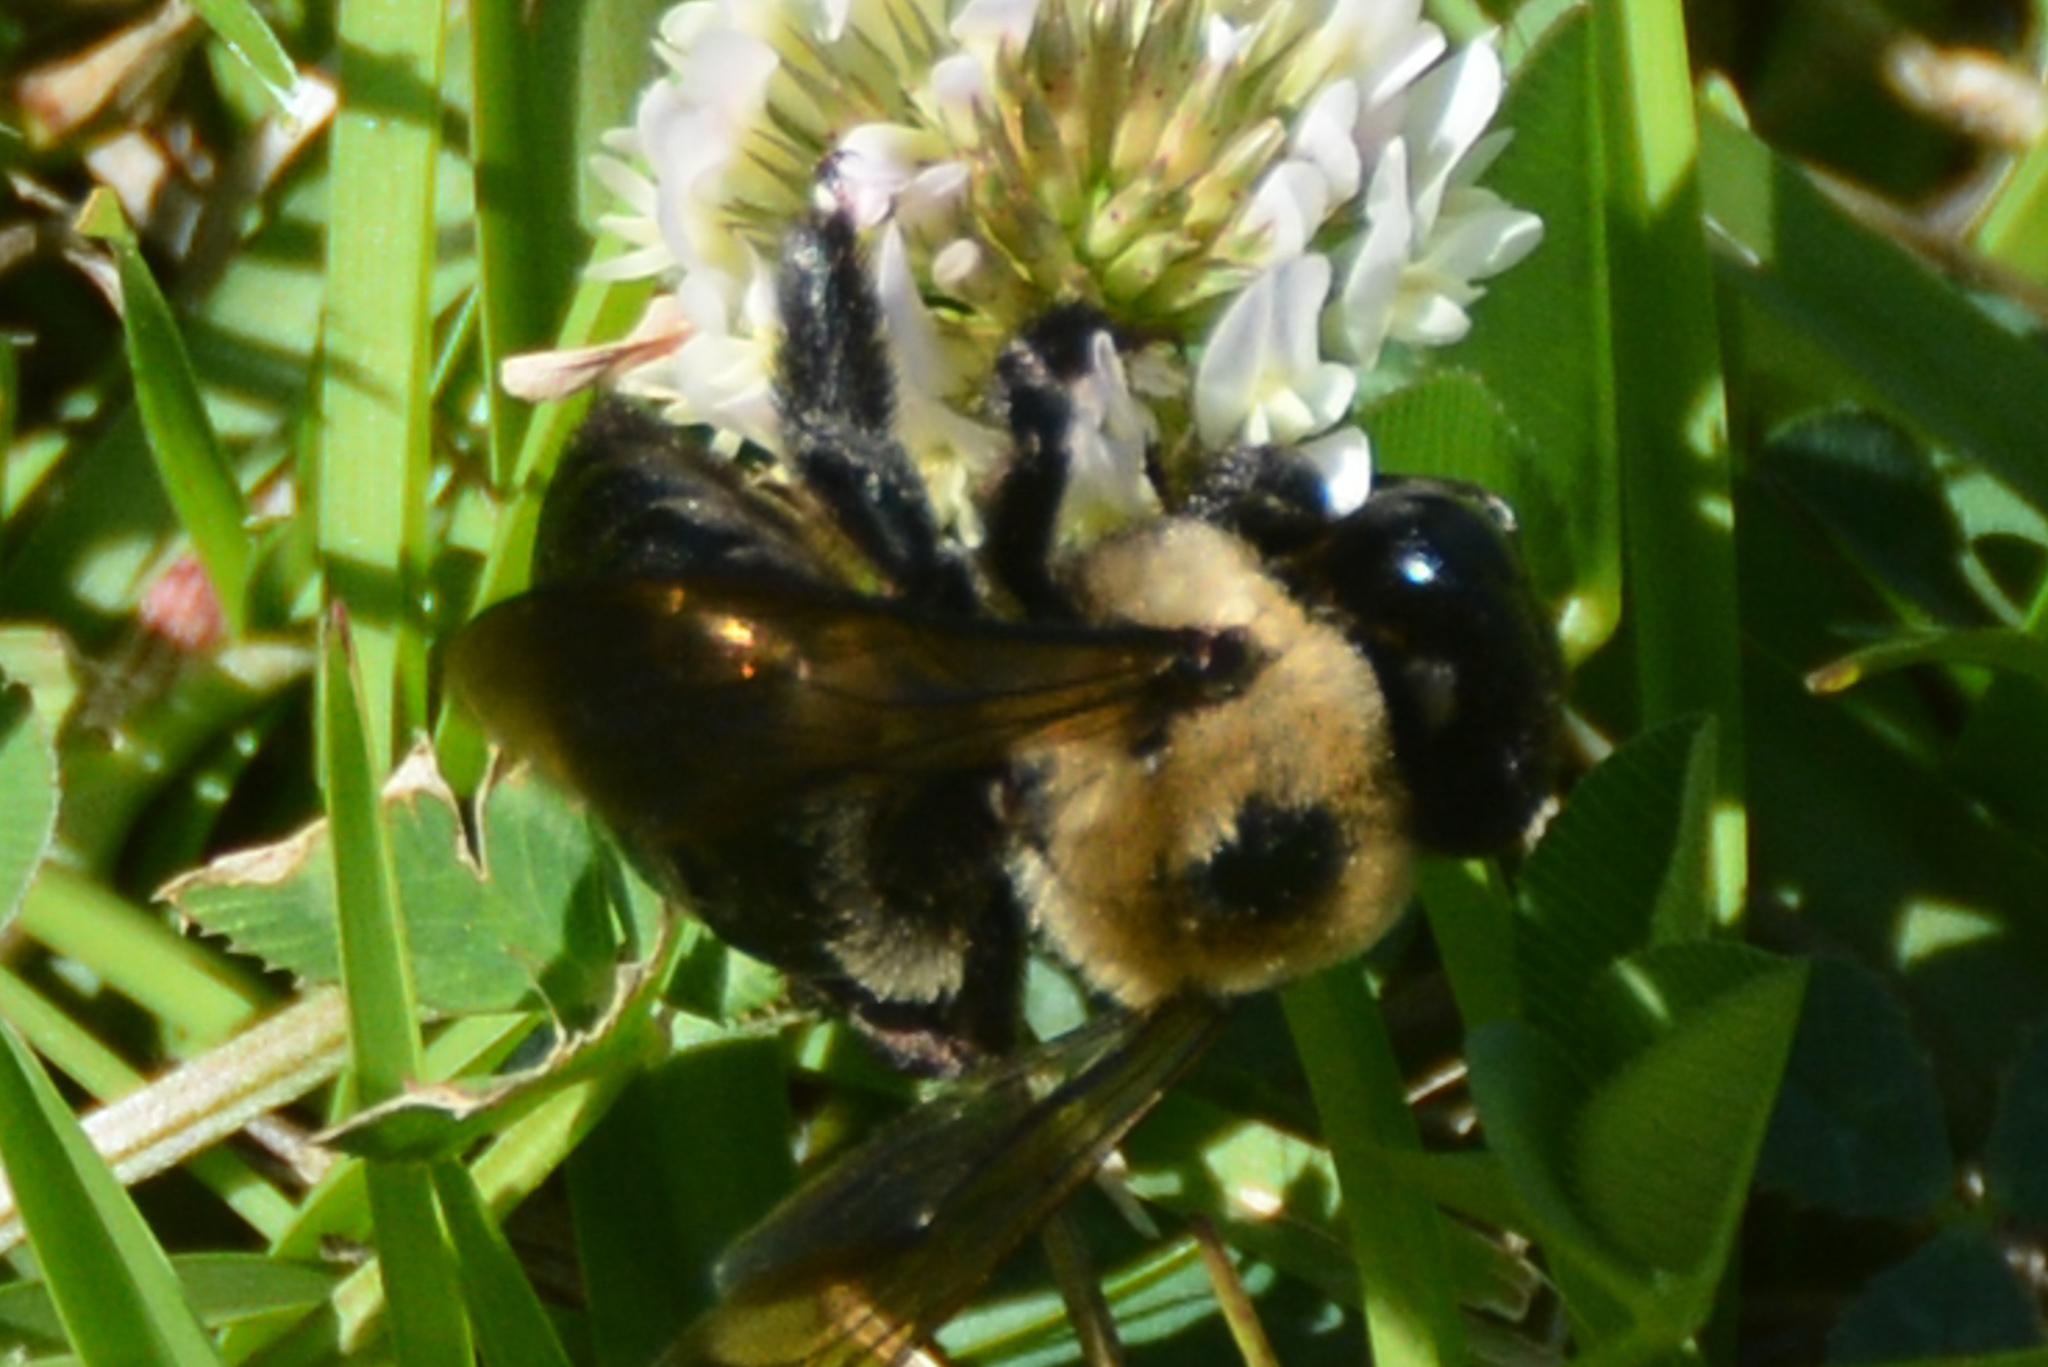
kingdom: Animalia
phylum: Arthropoda
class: Insecta
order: Hymenoptera
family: Apidae
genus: Xylocopa
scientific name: Xylocopa virginica
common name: Carpenter bee
